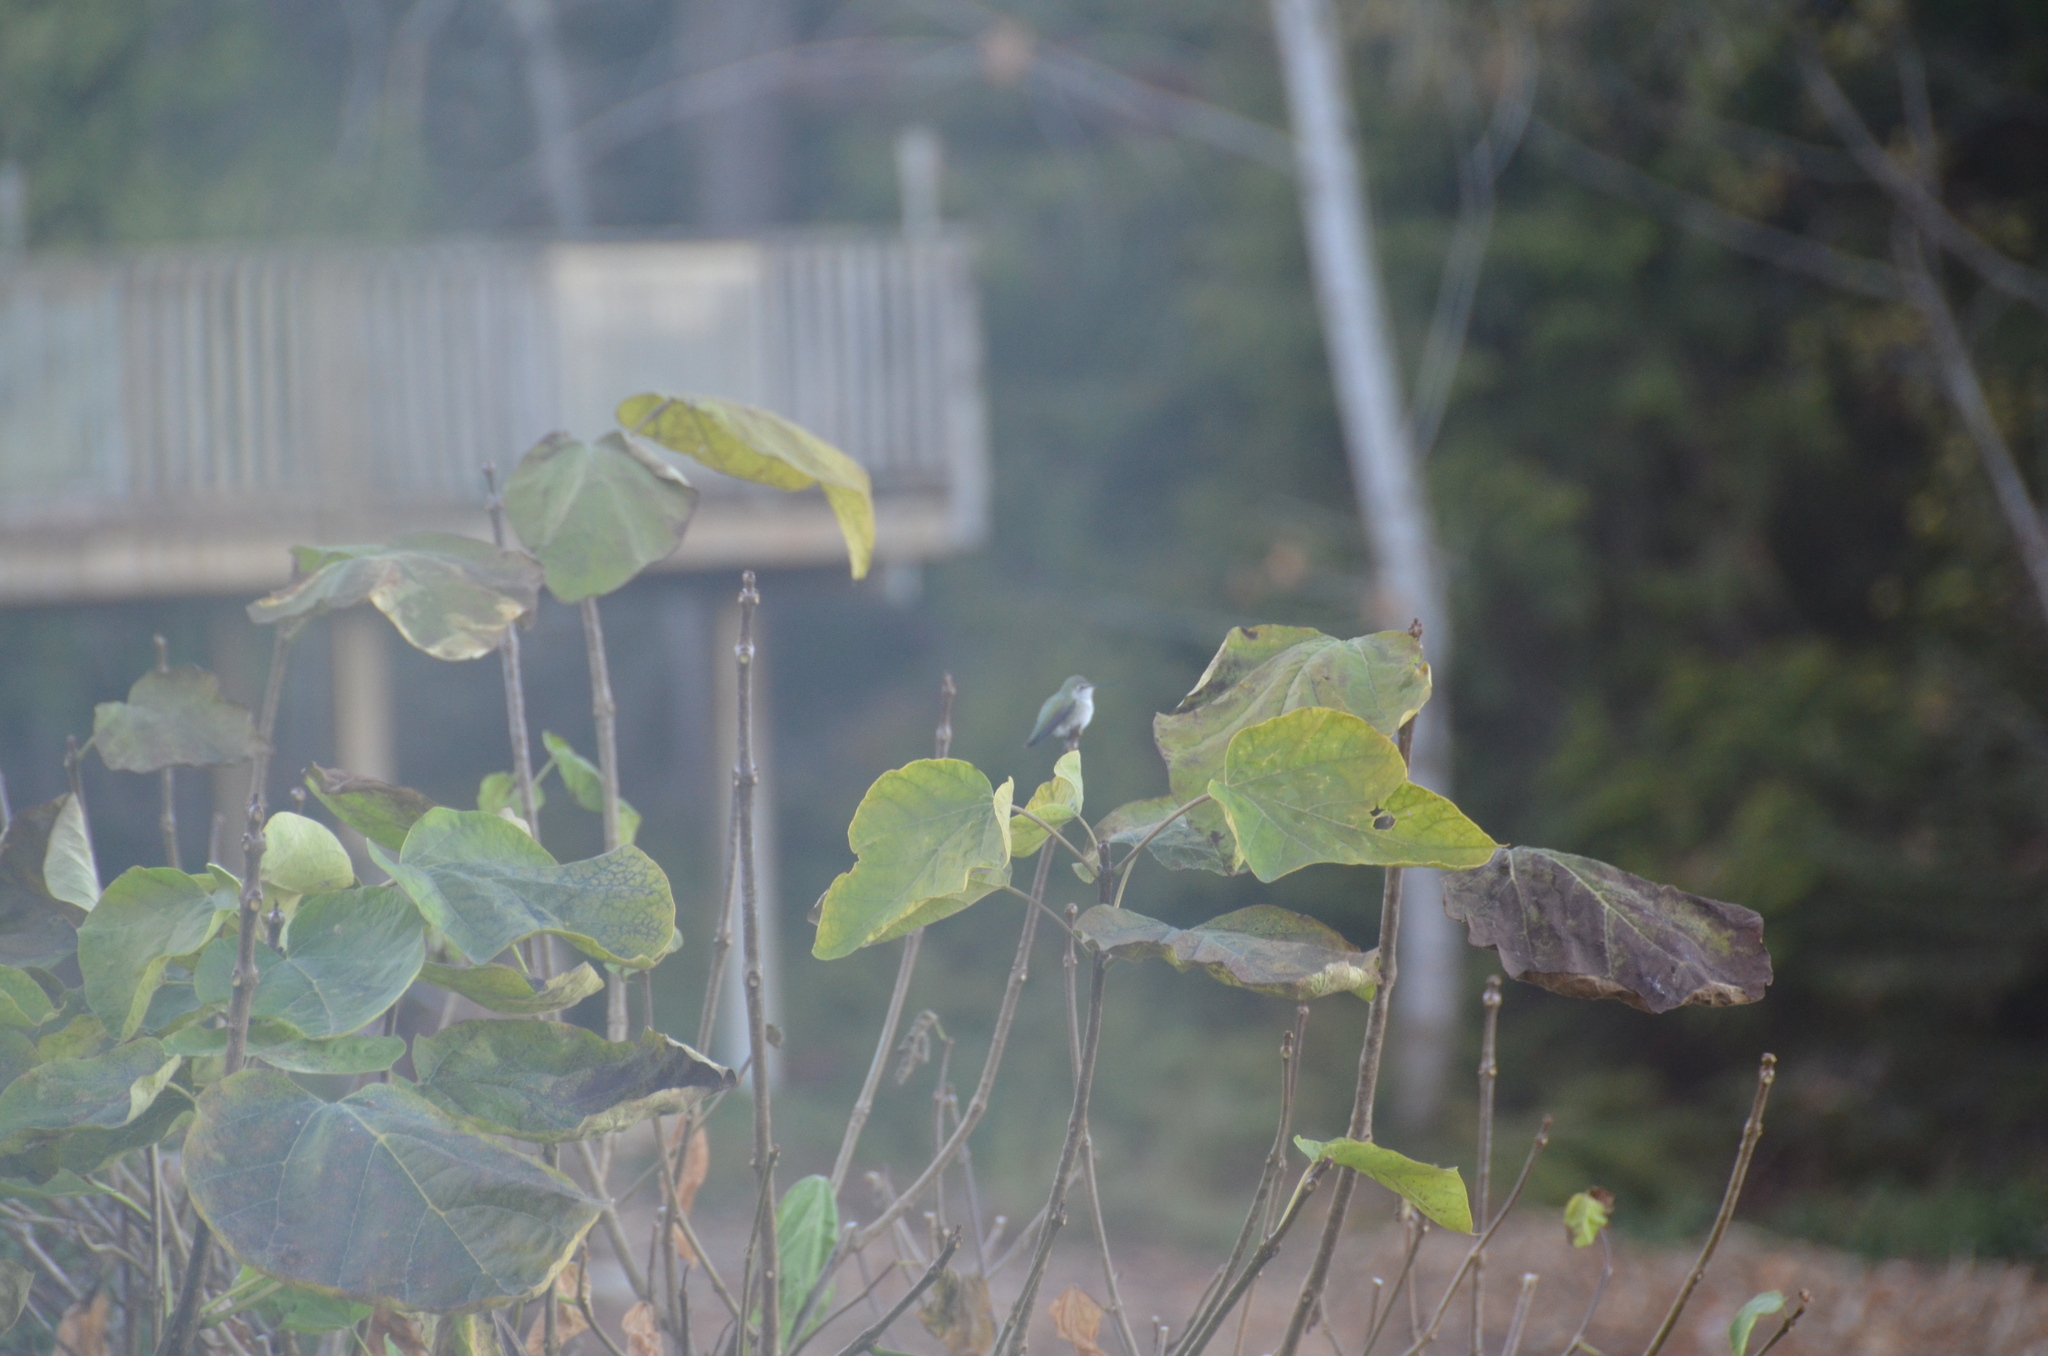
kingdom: Animalia
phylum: Chordata
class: Aves
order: Apodiformes
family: Trochilidae
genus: Calypte
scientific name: Calypte anna
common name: Anna's hummingbird
